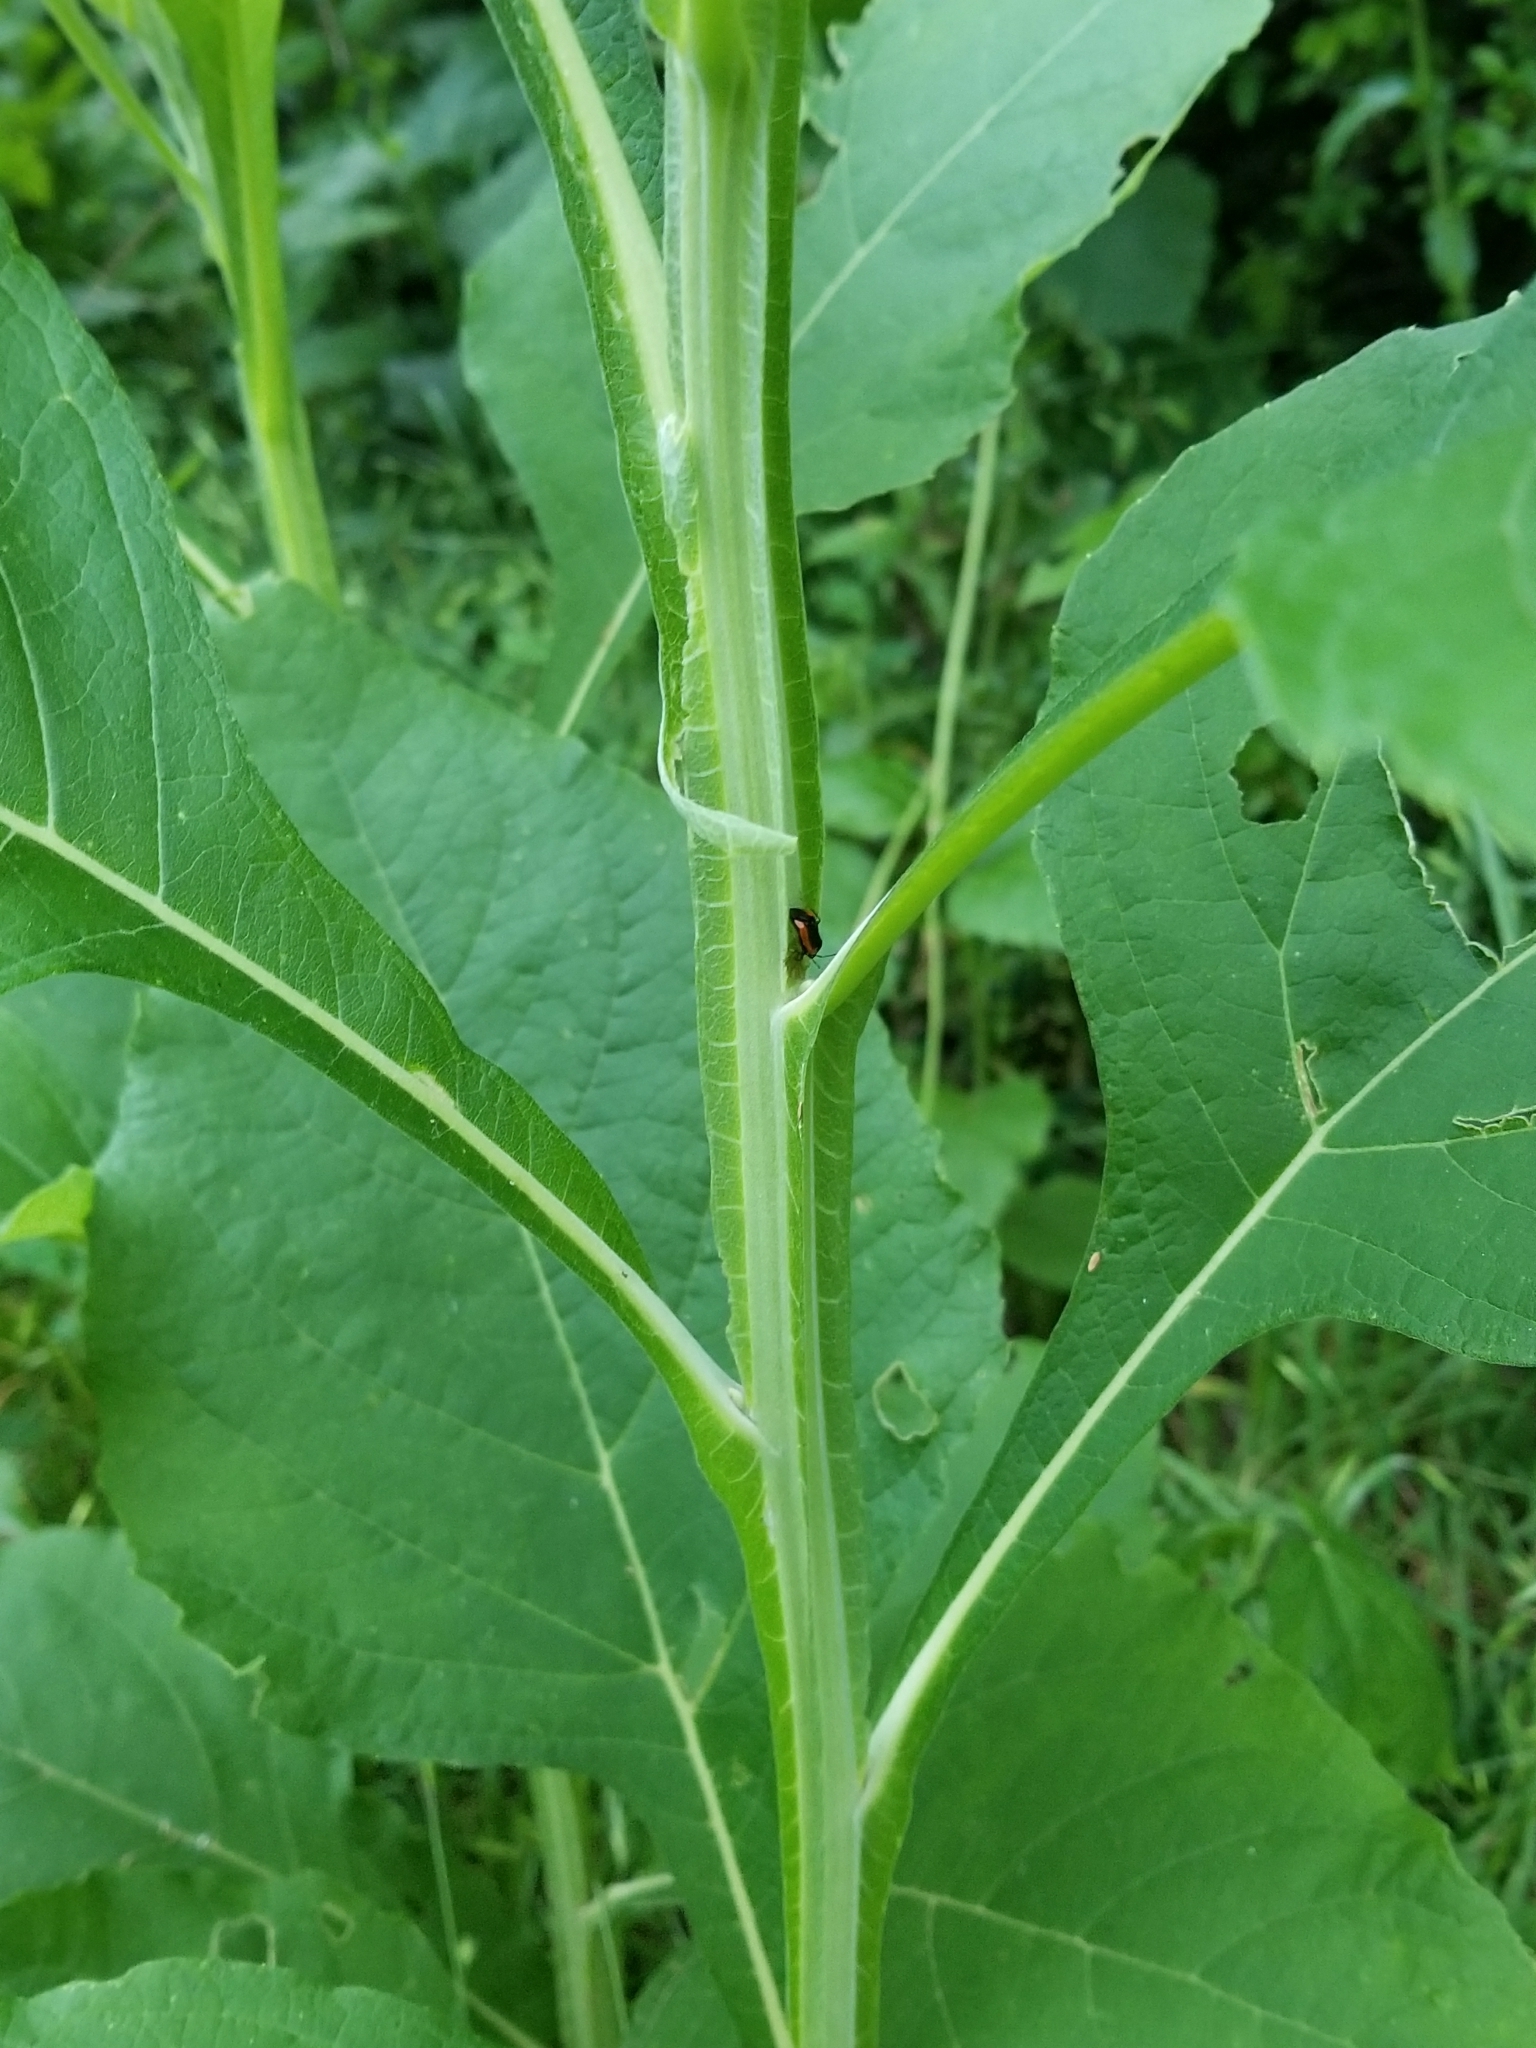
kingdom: Plantae
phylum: Tracheophyta
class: Magnoliopsida
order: Asterales
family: Asteraceae
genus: Verbesina
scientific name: Verbesina virginica
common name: Frostweed
